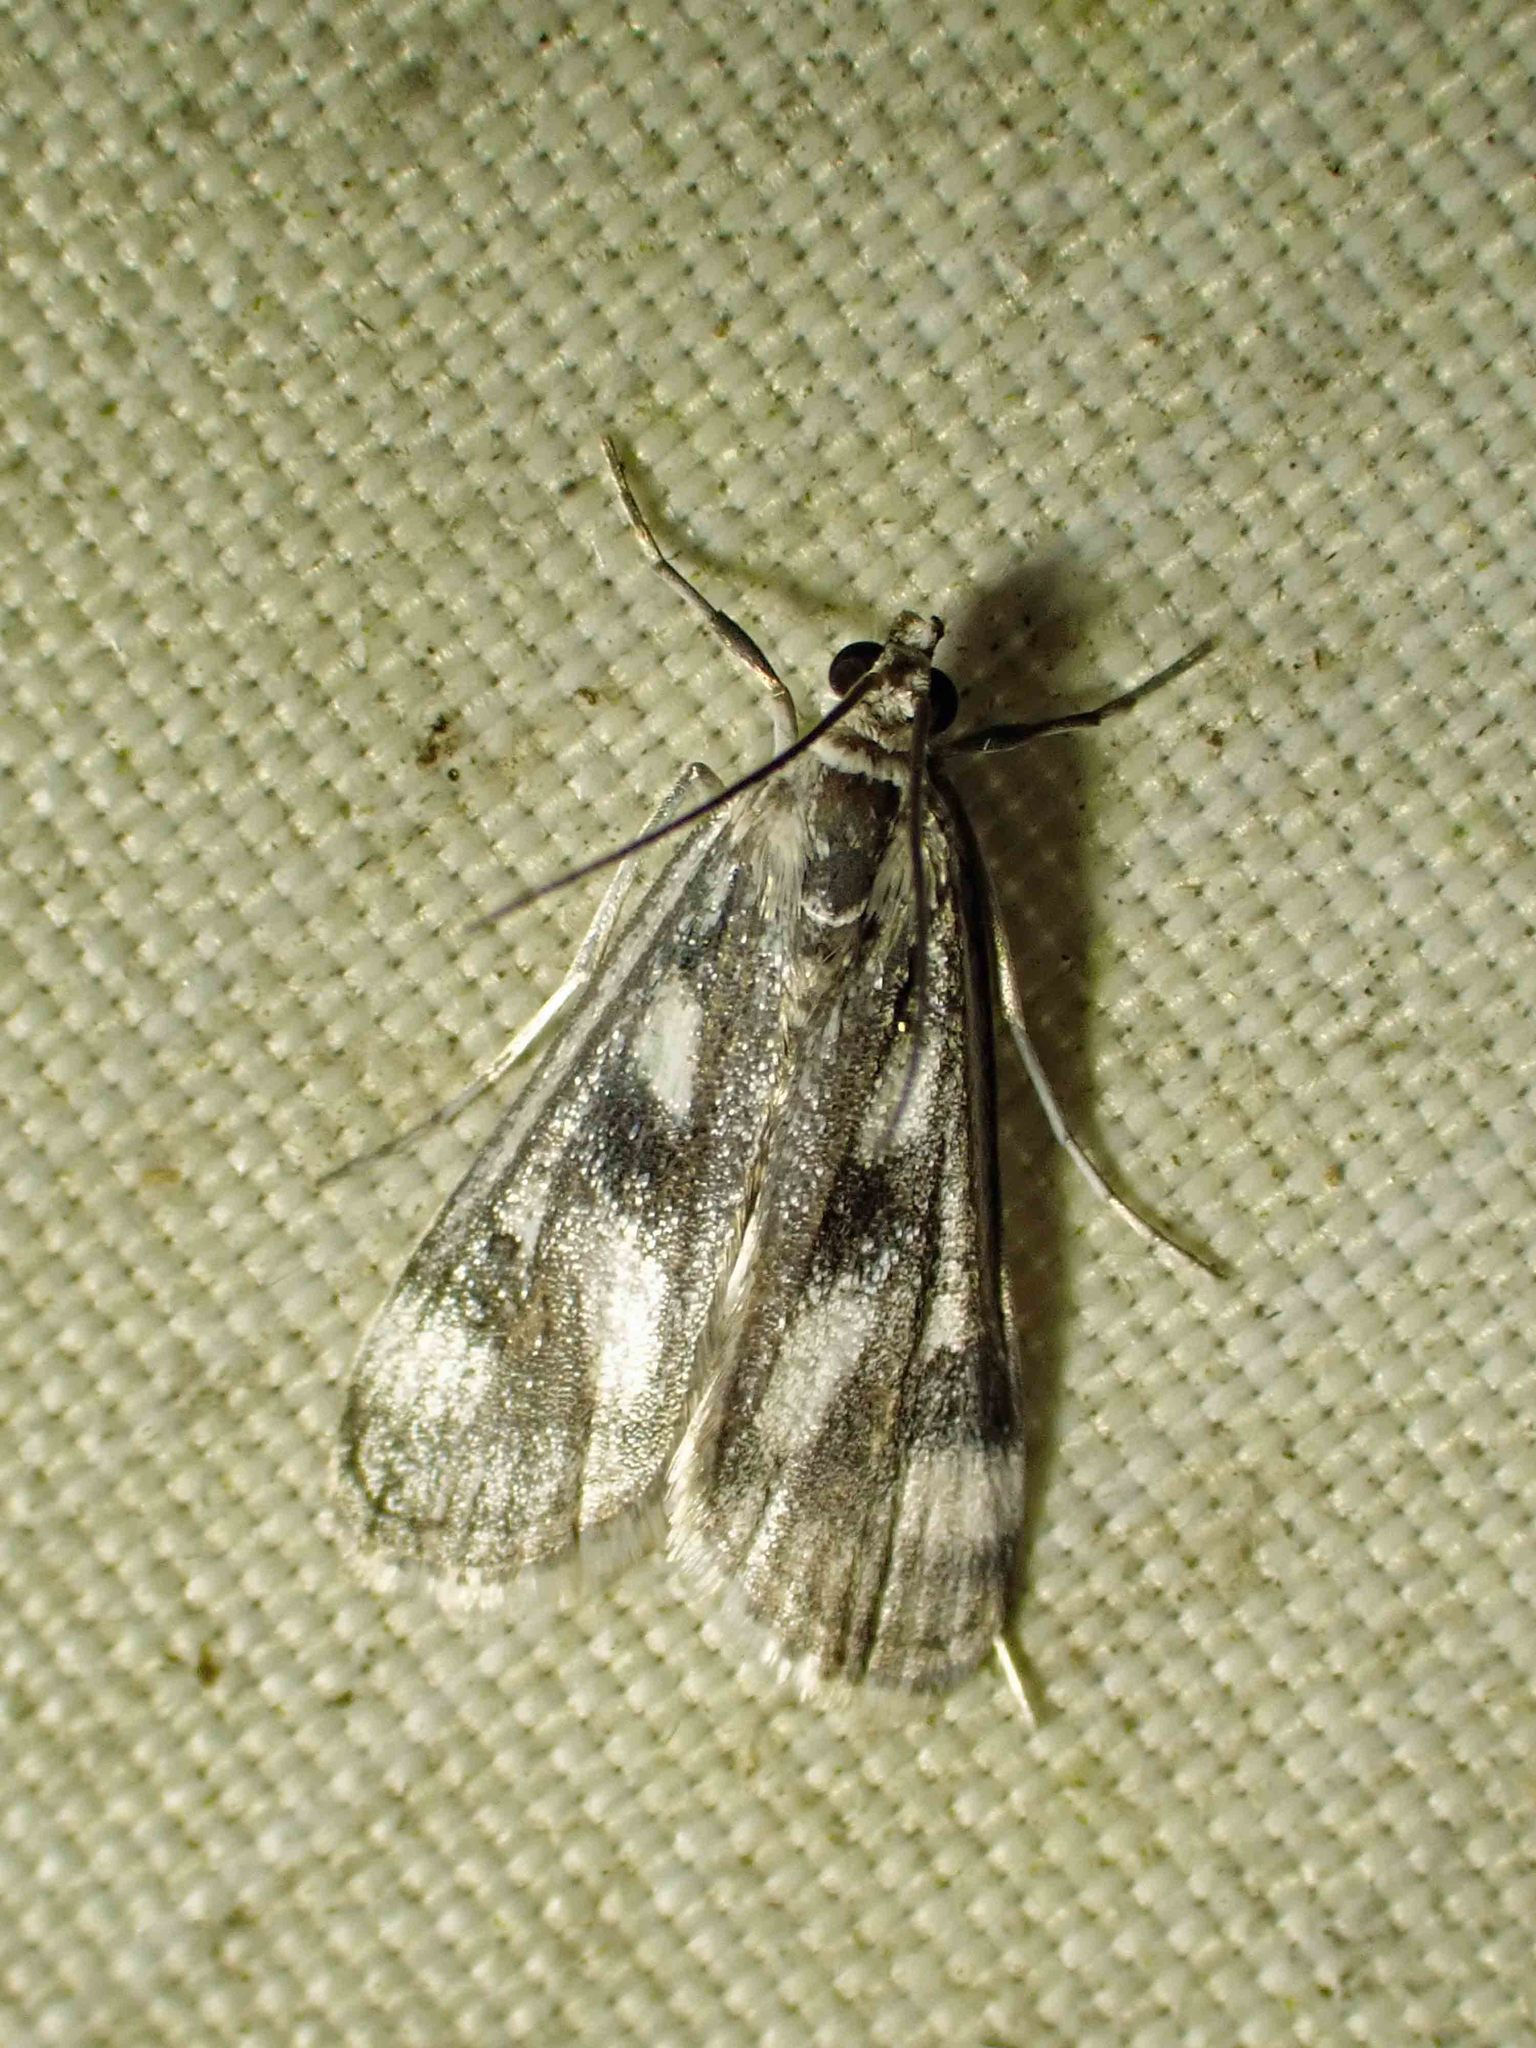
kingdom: Animalia
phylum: Arthropoda
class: Insecta
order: Lepidoptera
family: Crambidae
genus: Parapoynx
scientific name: Parapoynx maculalis
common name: Polymorphic pondweed moth
